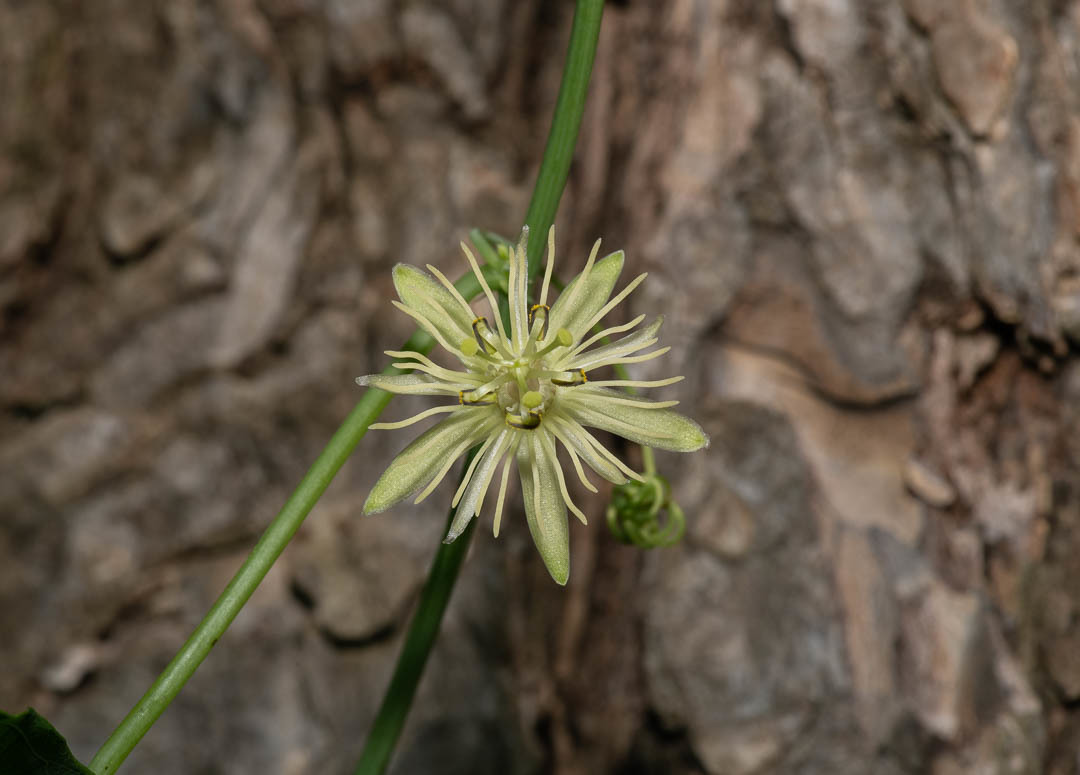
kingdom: Plantae
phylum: Tracheophyta
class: Magnoliopsida
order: Malpighiales
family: Passifloraceae
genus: Passiflora
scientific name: Passiflora lutea
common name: Yellow passionflower
